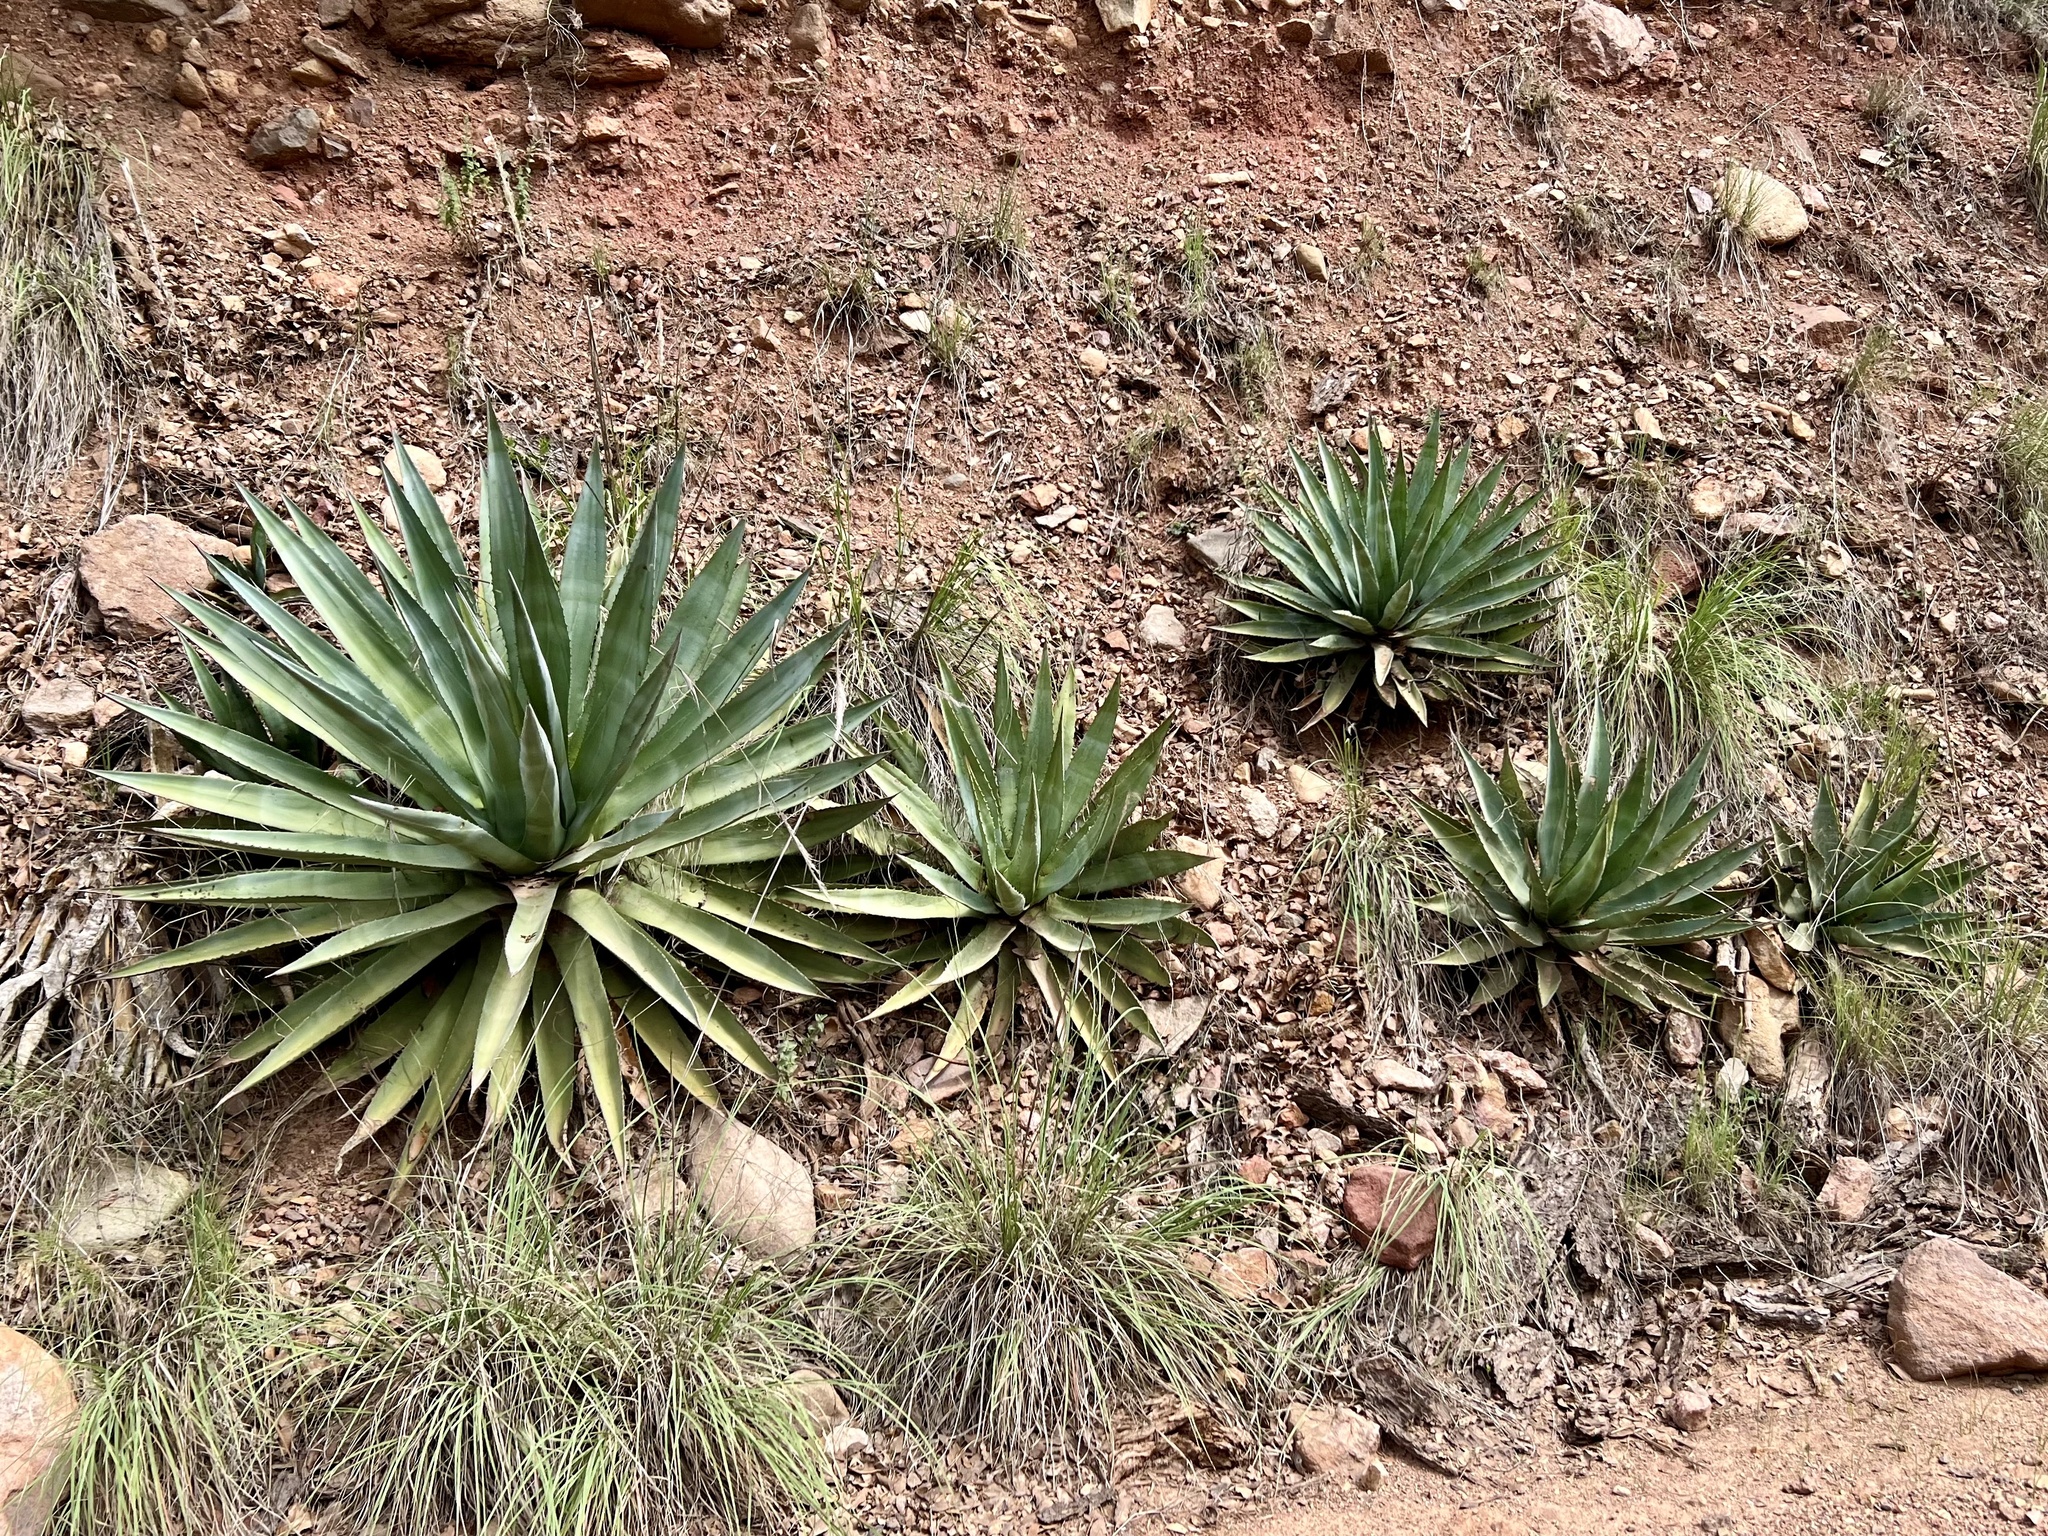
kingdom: Plantae
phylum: Tracheophyta
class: Liliopsida
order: Asparagales
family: Asparagaceae
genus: Agave
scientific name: Agave palmeri
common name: Palmer agave
